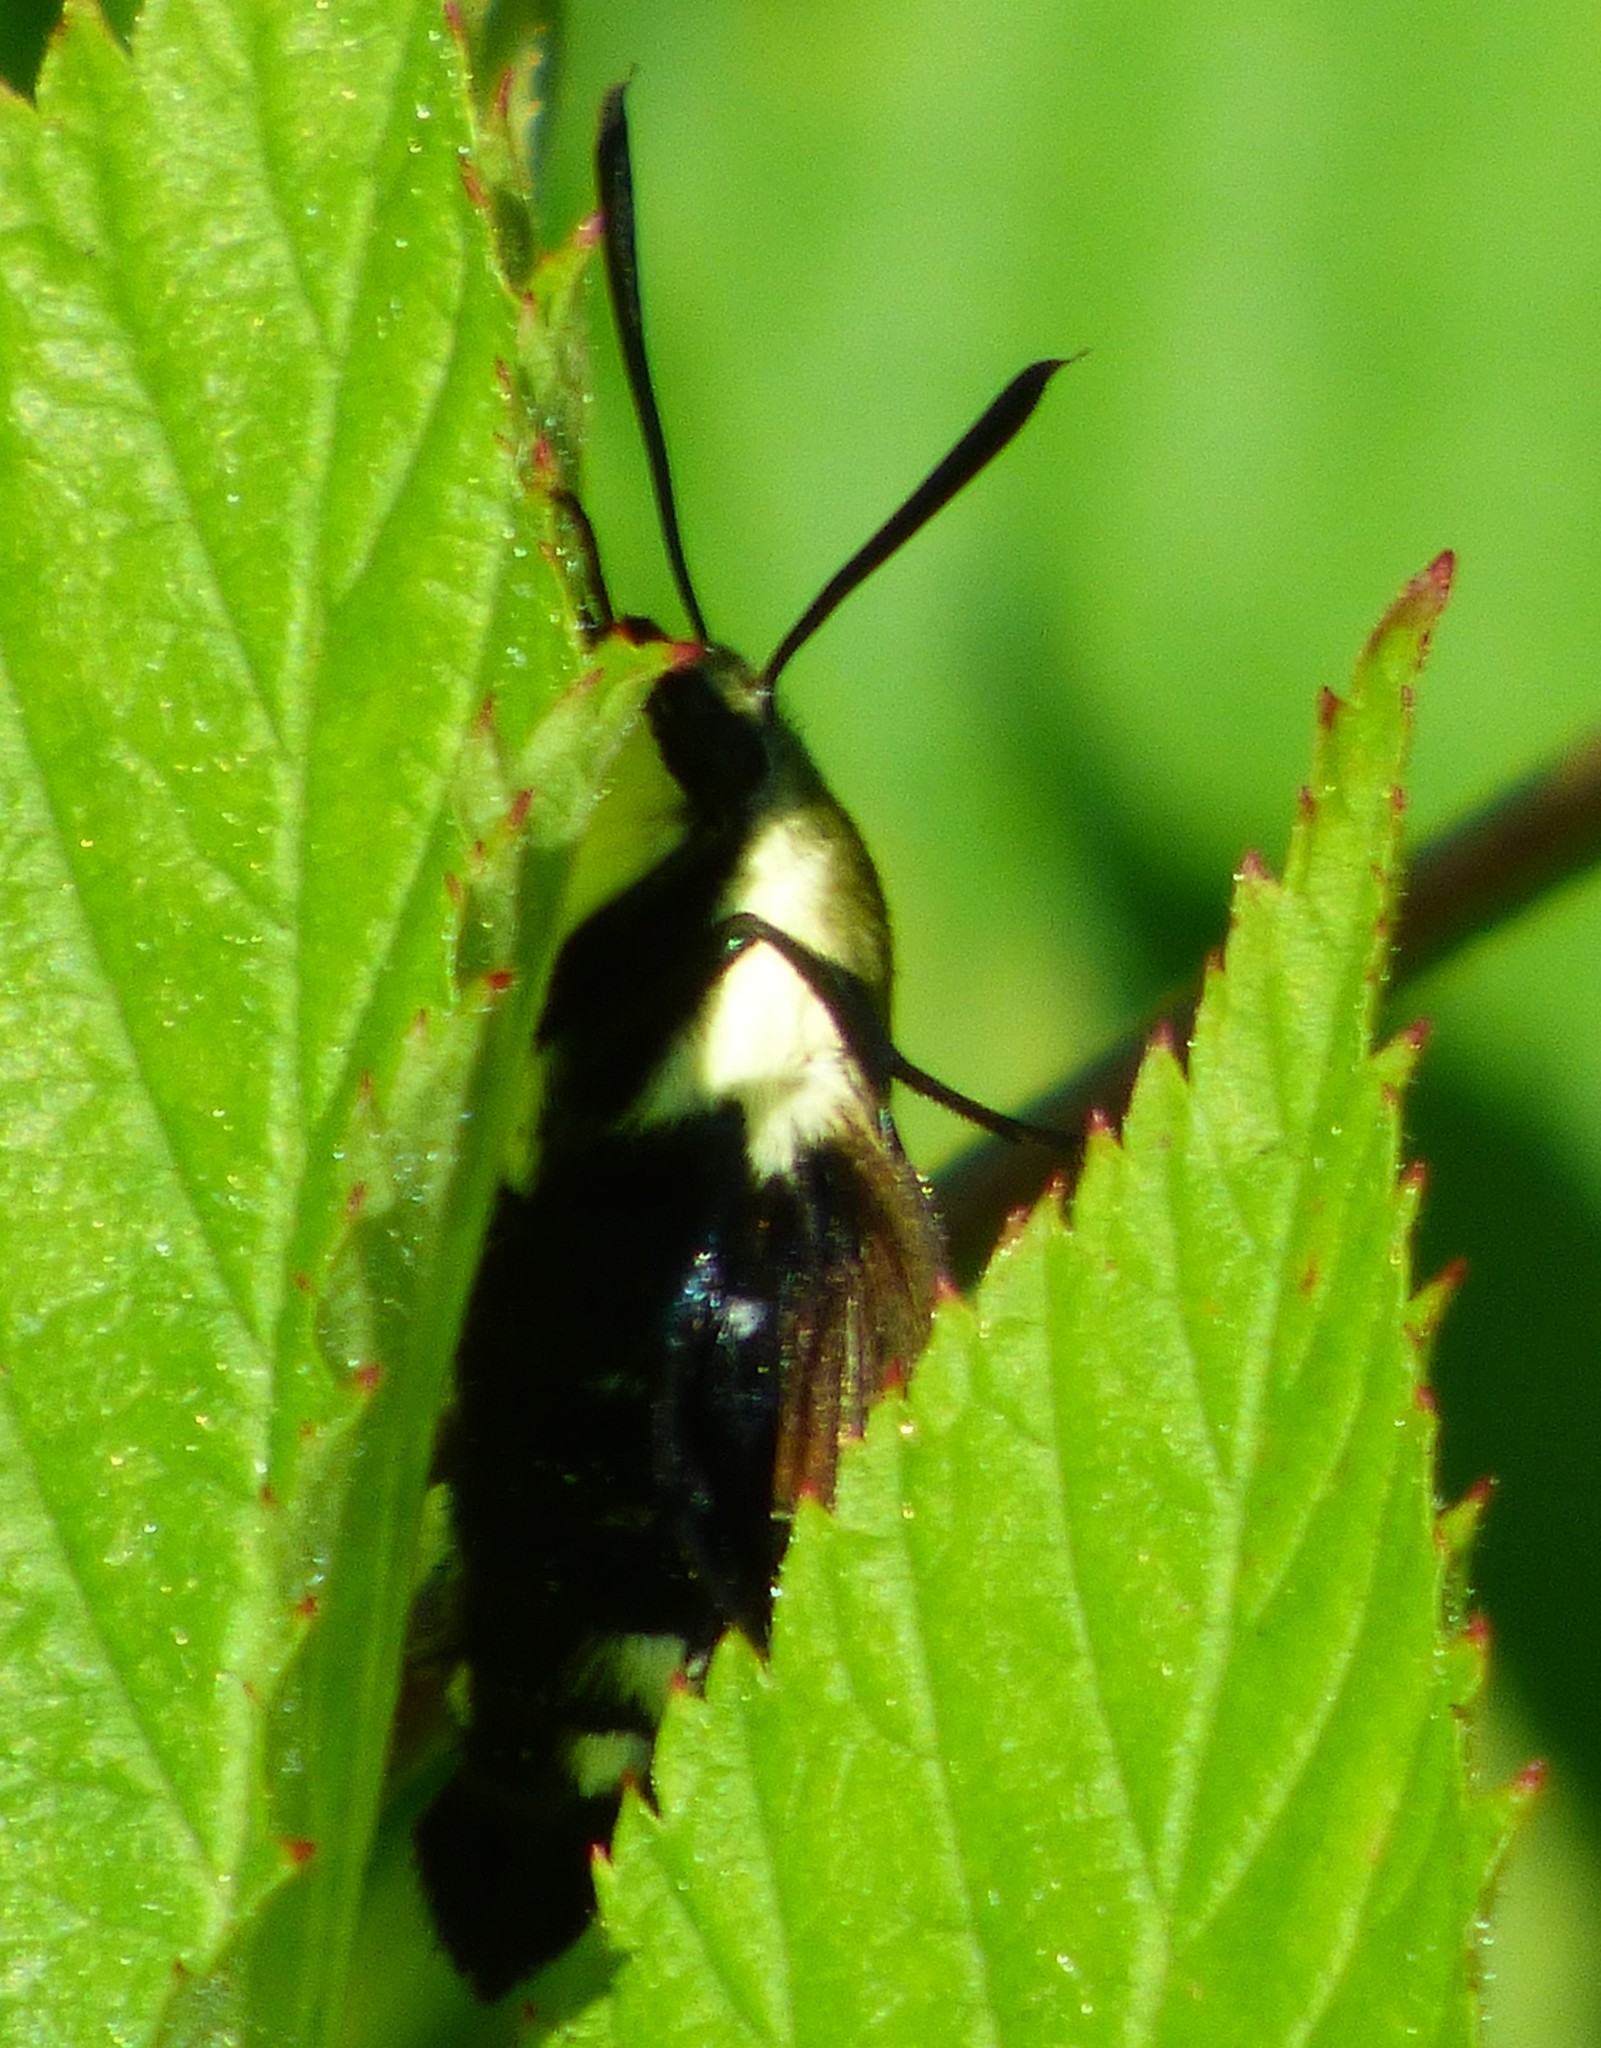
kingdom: Animalia
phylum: Arthropoda
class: Insecta
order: Lepidoptera
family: Sphingidae
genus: Hemaris
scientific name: Hemaris diffinis
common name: Bumblebee moth
